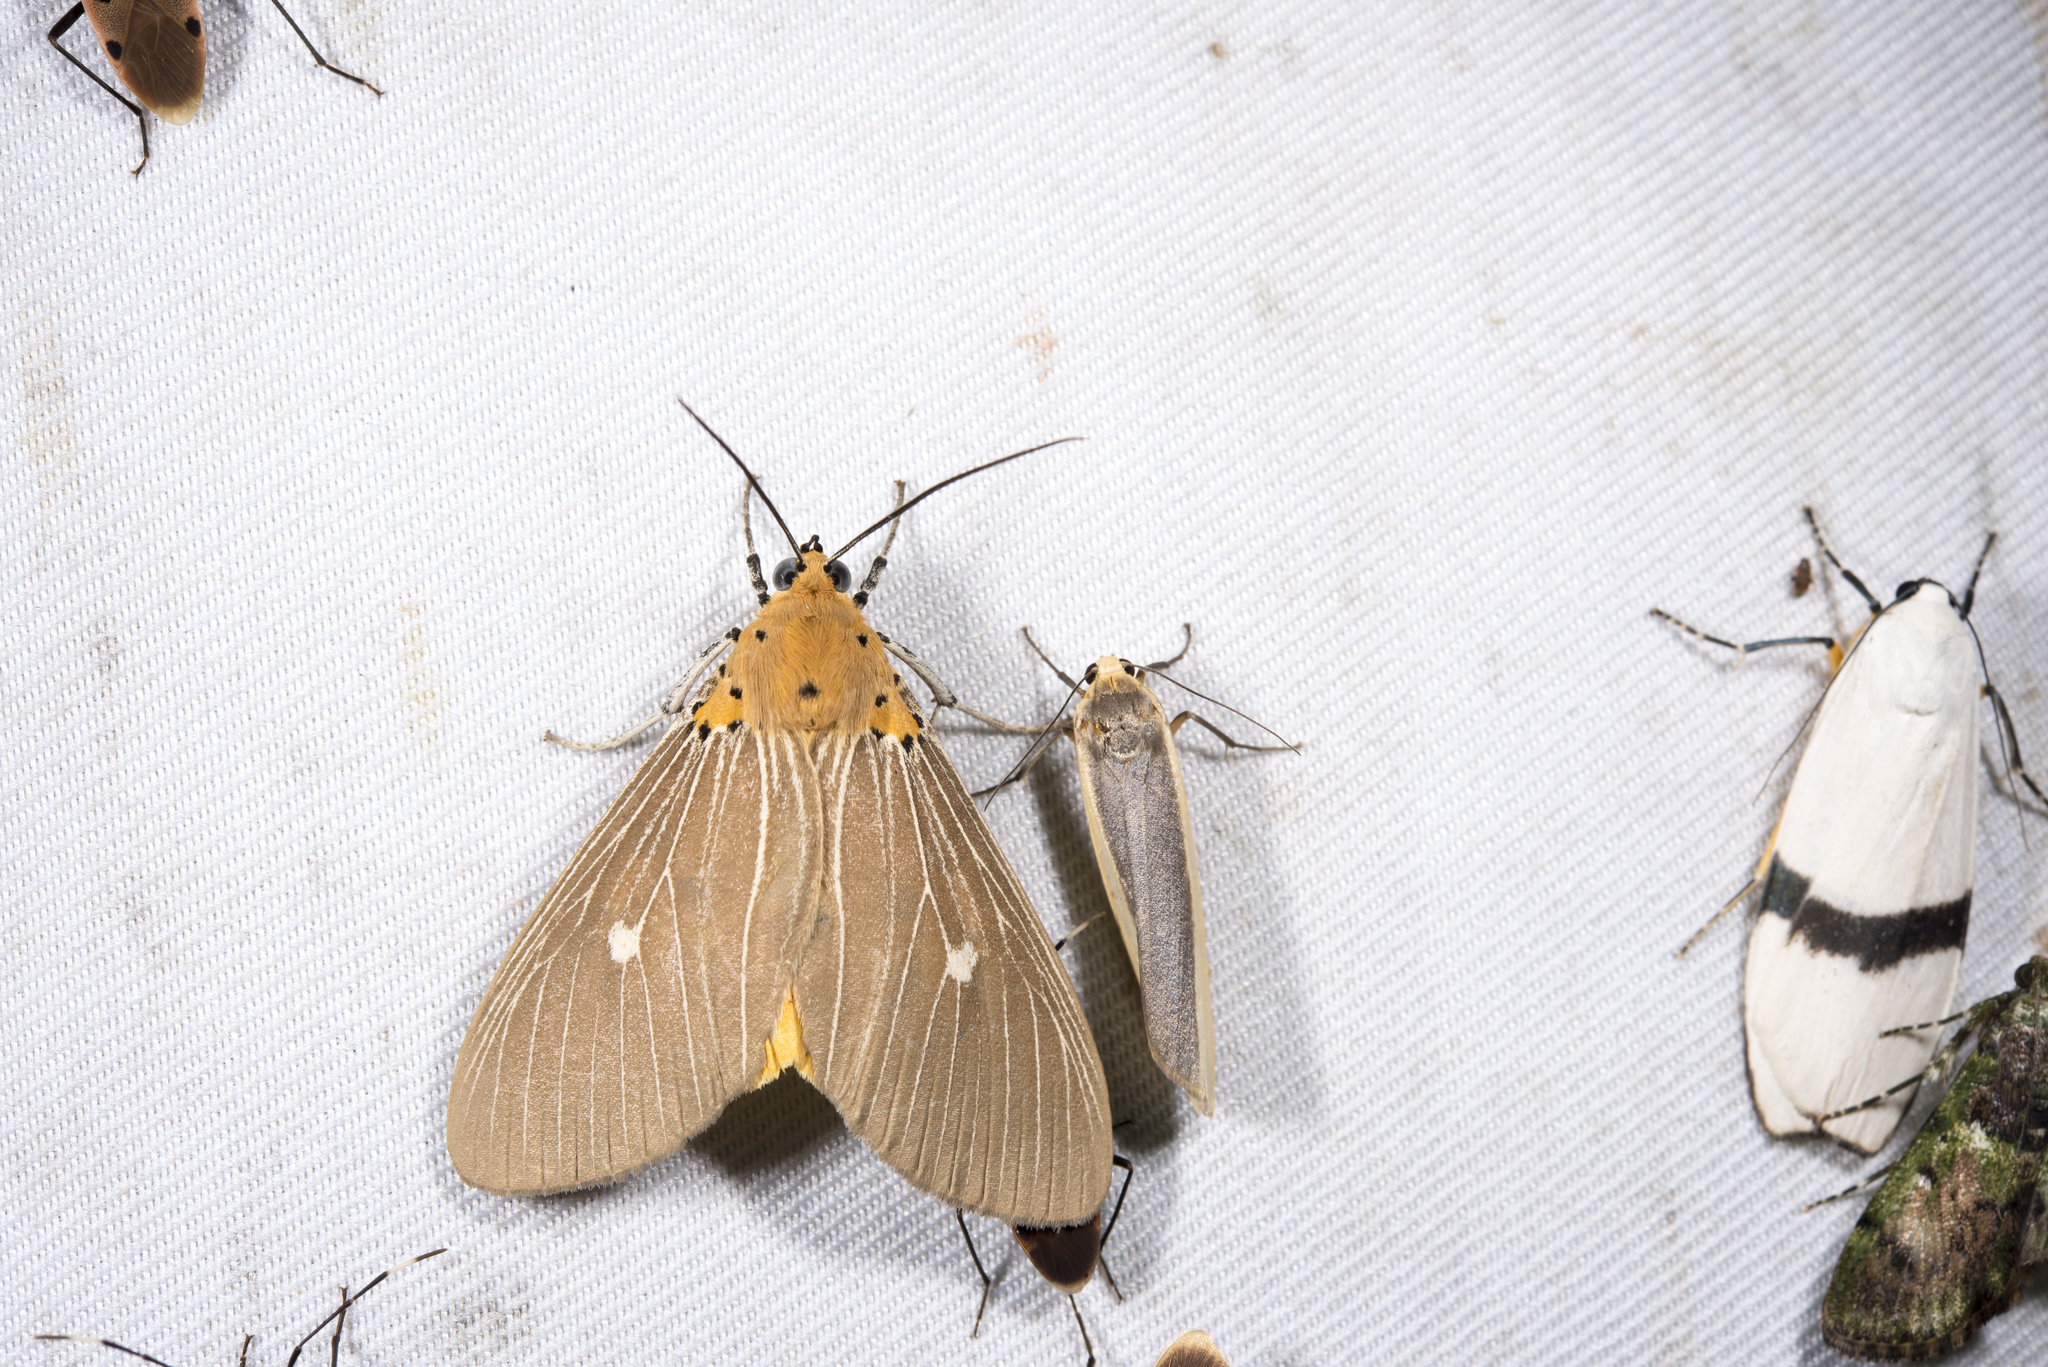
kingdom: Animalia
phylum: Arthropoda
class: Insecta
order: Lepidoptera
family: Erebidae
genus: Asota
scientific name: Asota caricae
